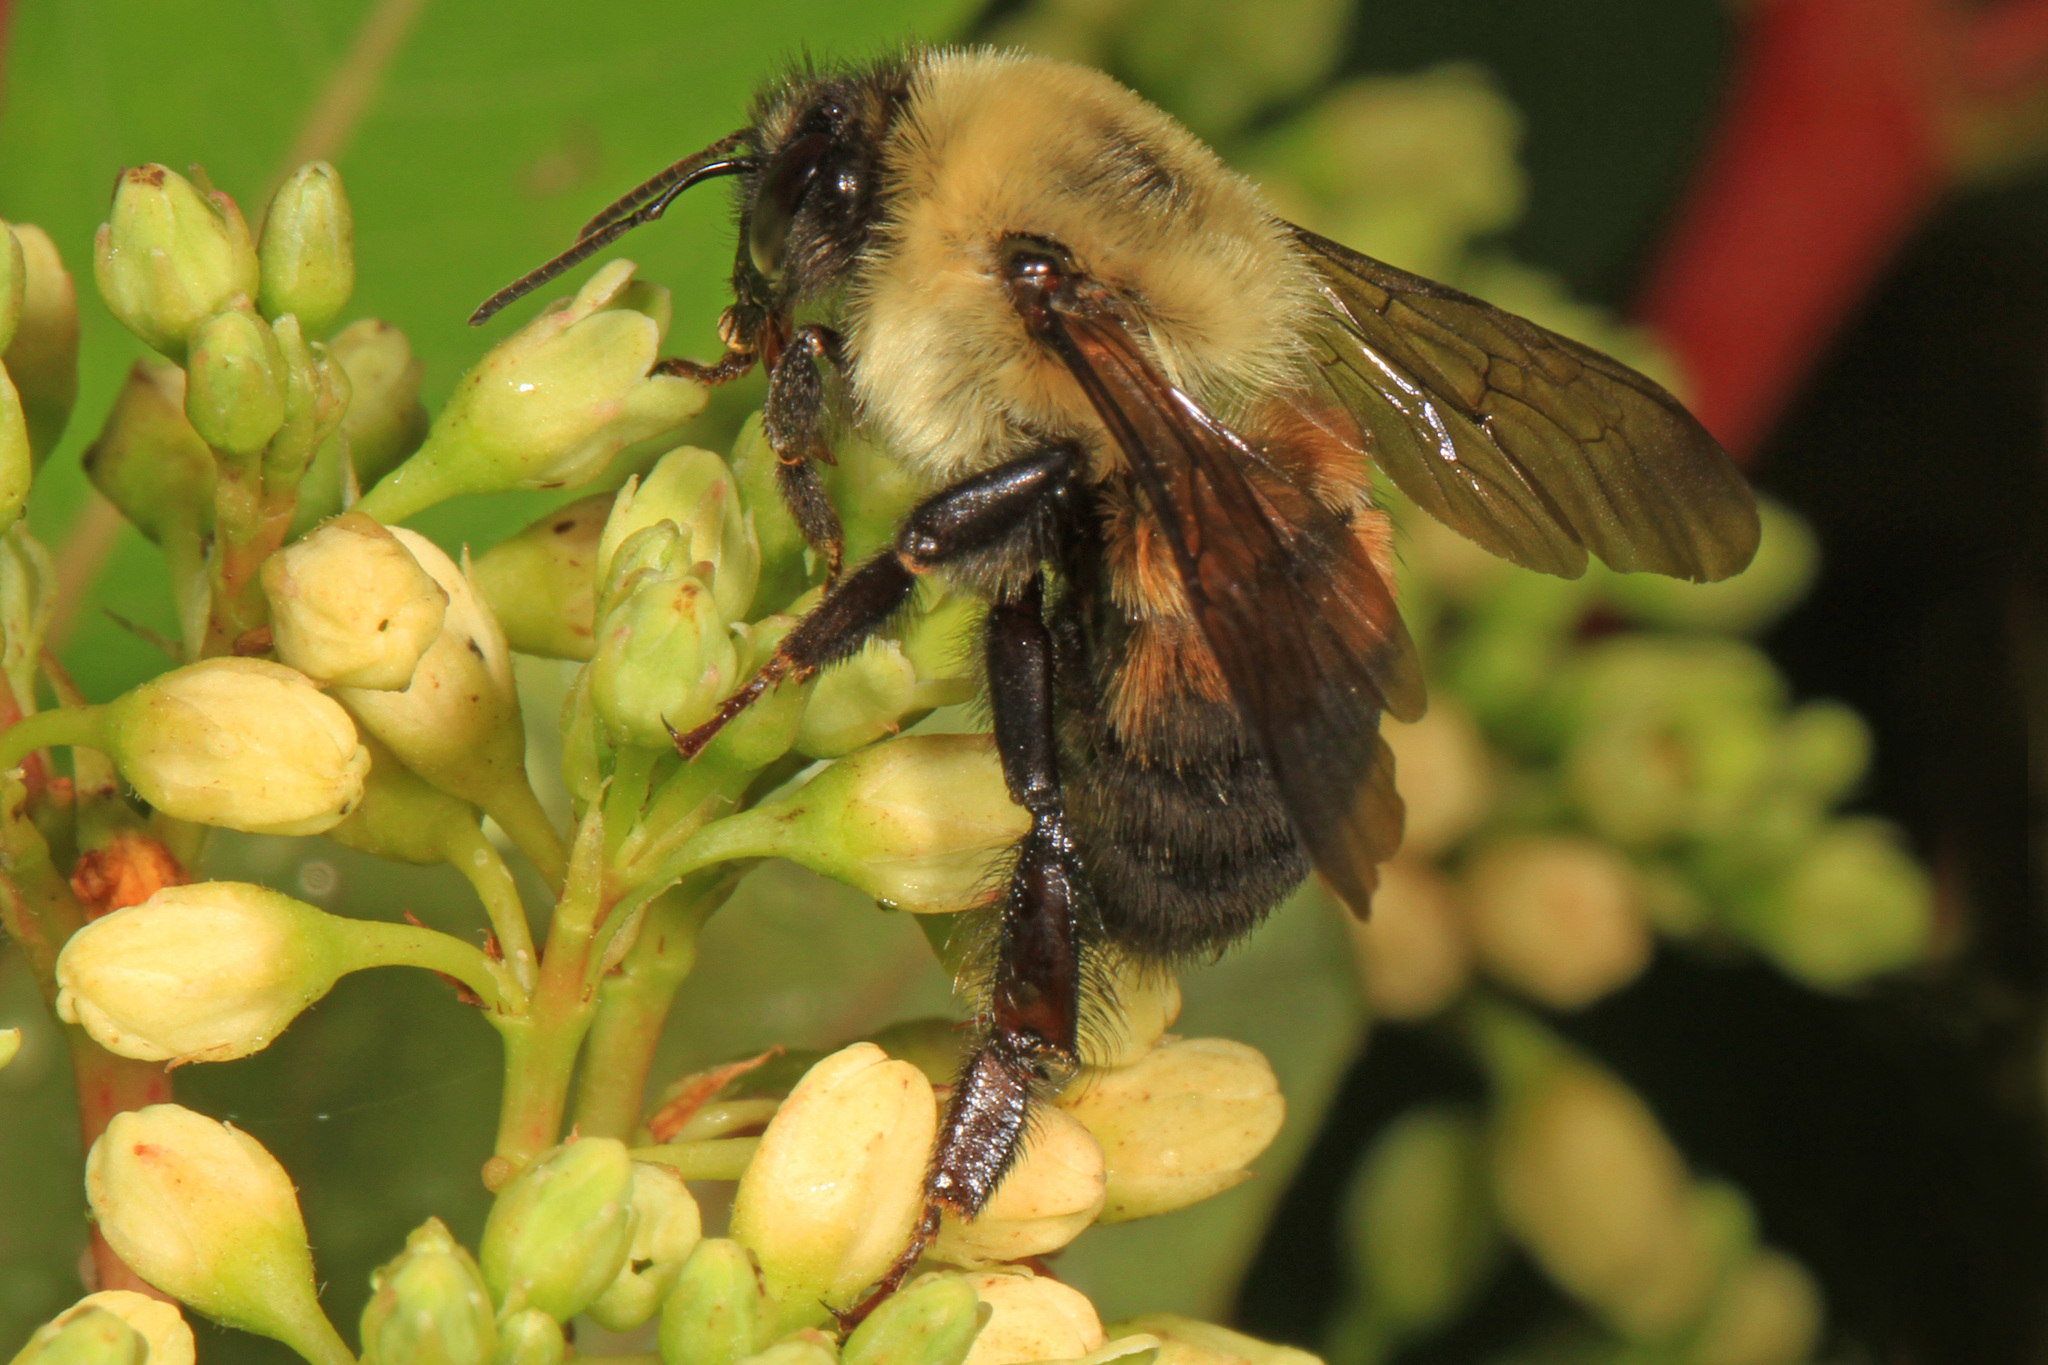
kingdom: Animalia
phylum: Arthropoda
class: Insecta
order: Hymenoptera
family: Apidae
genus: Bombus
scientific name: Bombus griseocollis
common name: Brown-belted bumble bee
